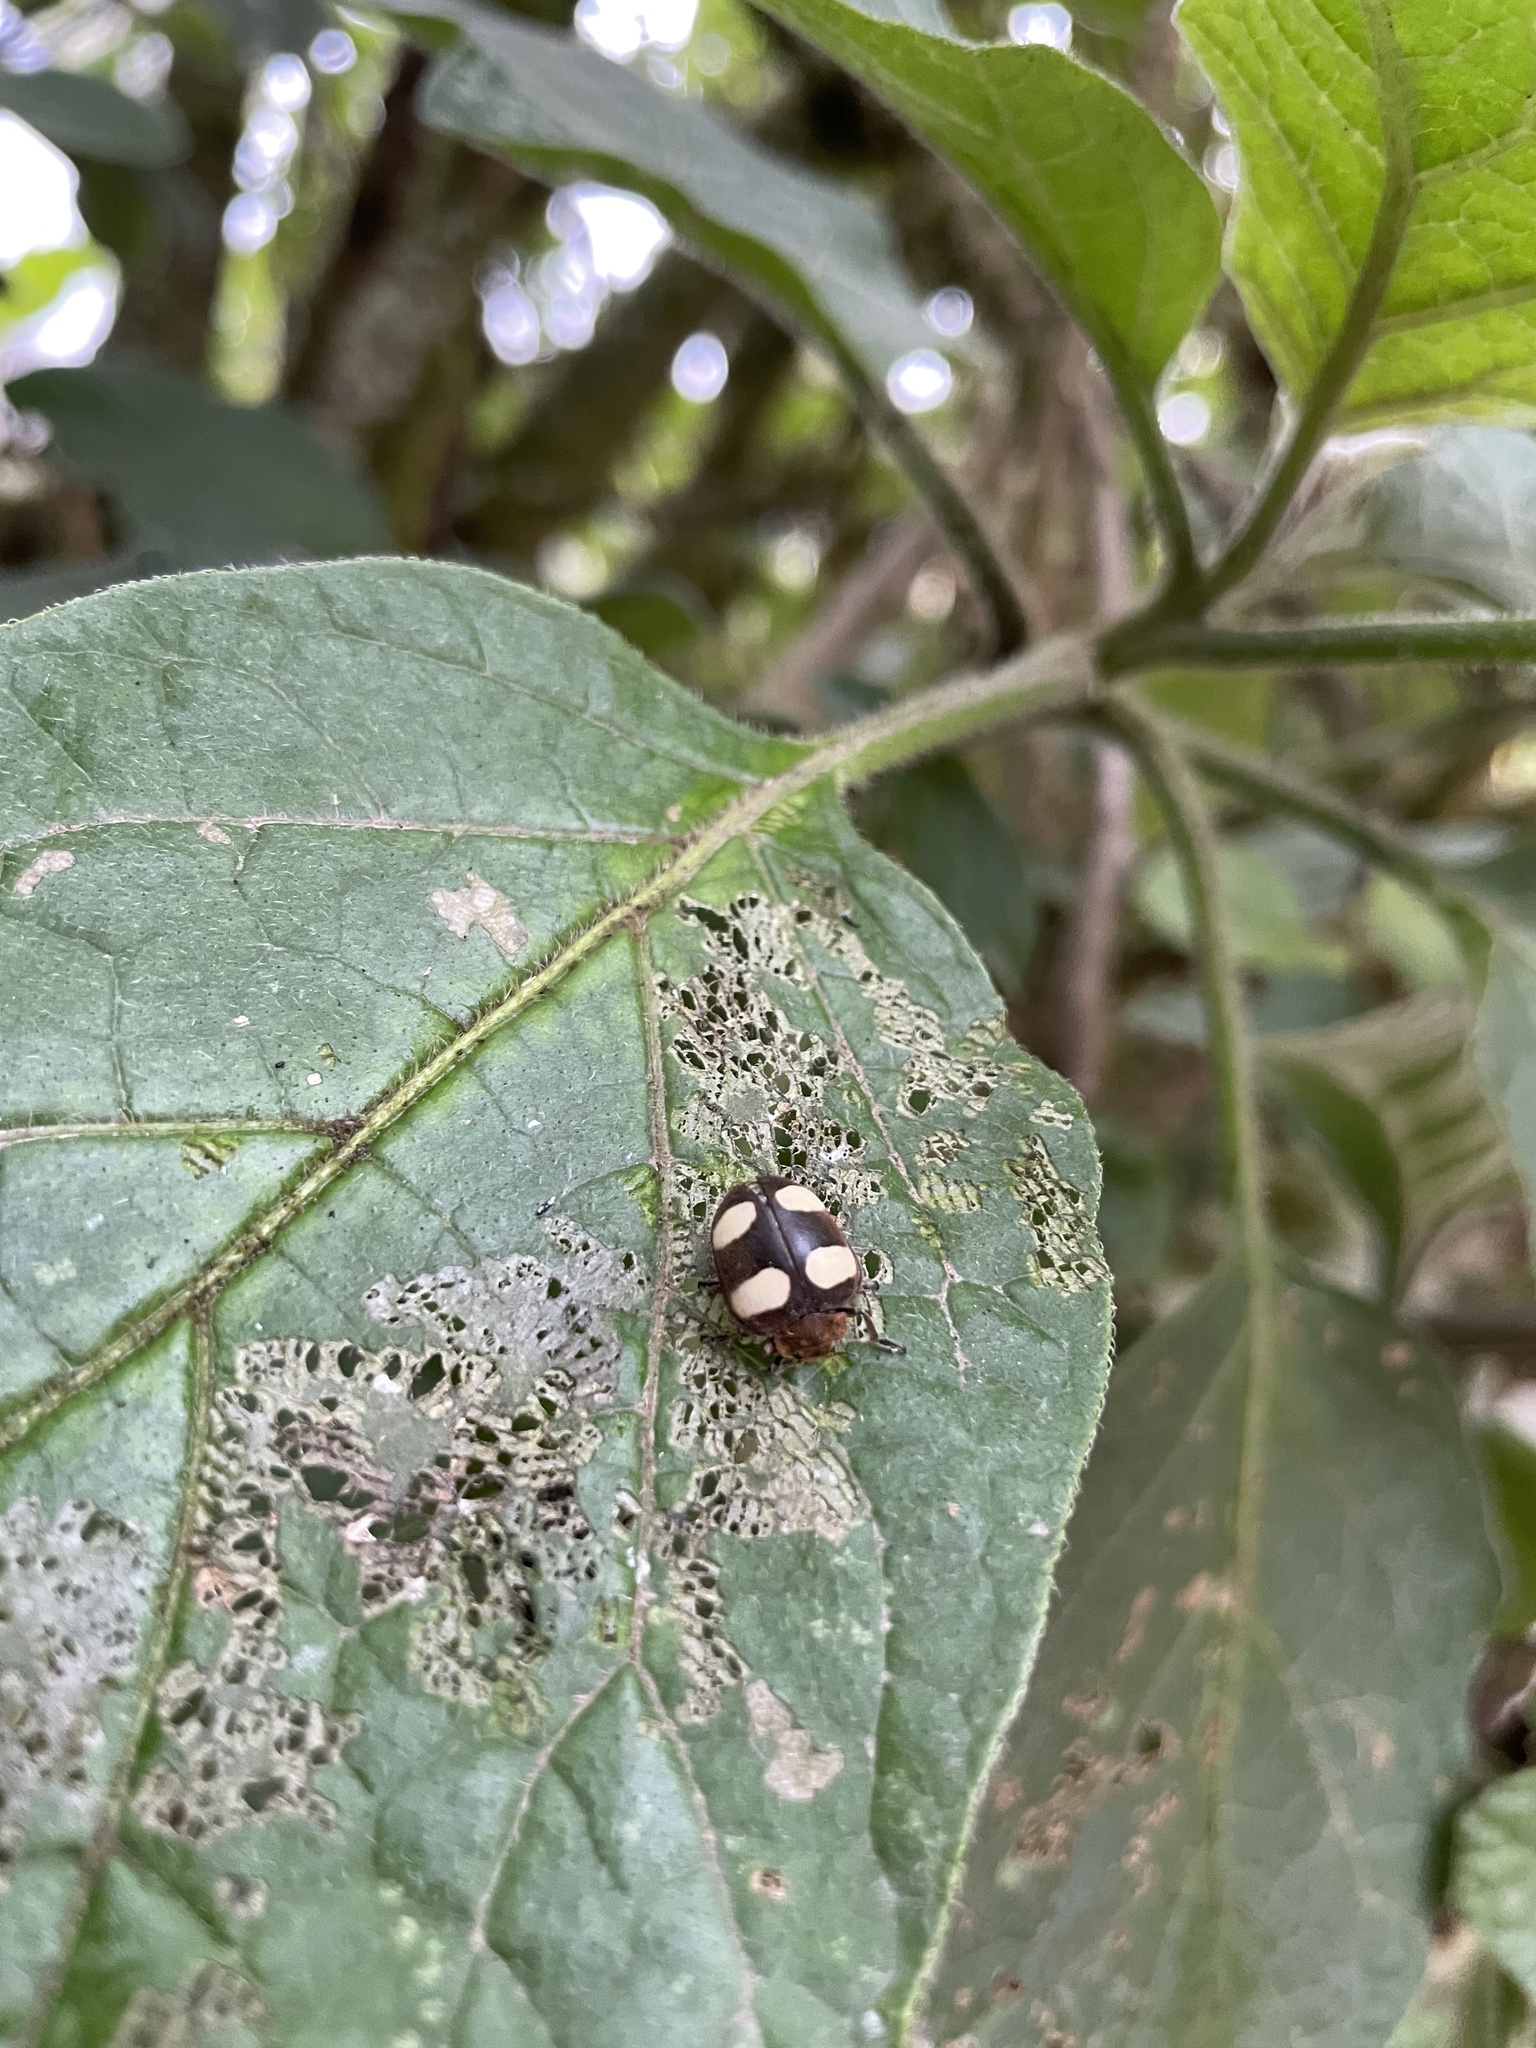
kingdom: Animalia
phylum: Arthropoda
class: Insecta
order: Coleoptera
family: Coccinellidae
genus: Epilachna
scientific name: Epilachna
